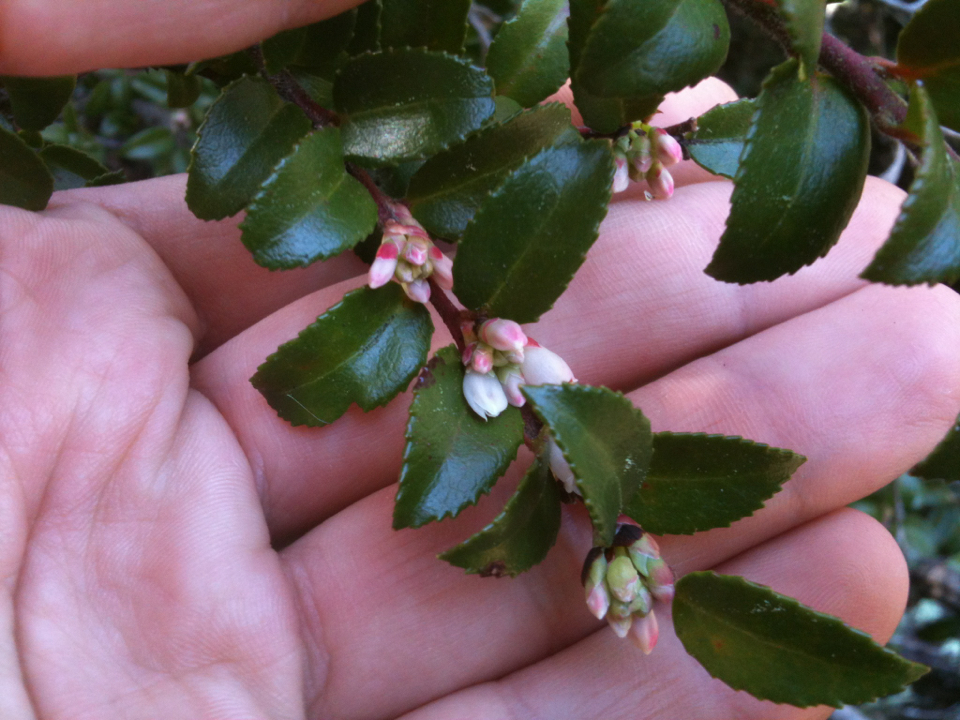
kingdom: Plantae
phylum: Tracheophyta
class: Magnoliopsida
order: Ericales
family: Ericaceae
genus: Vaccinium
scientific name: Vaccinium ovatum
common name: California-huckleberry
